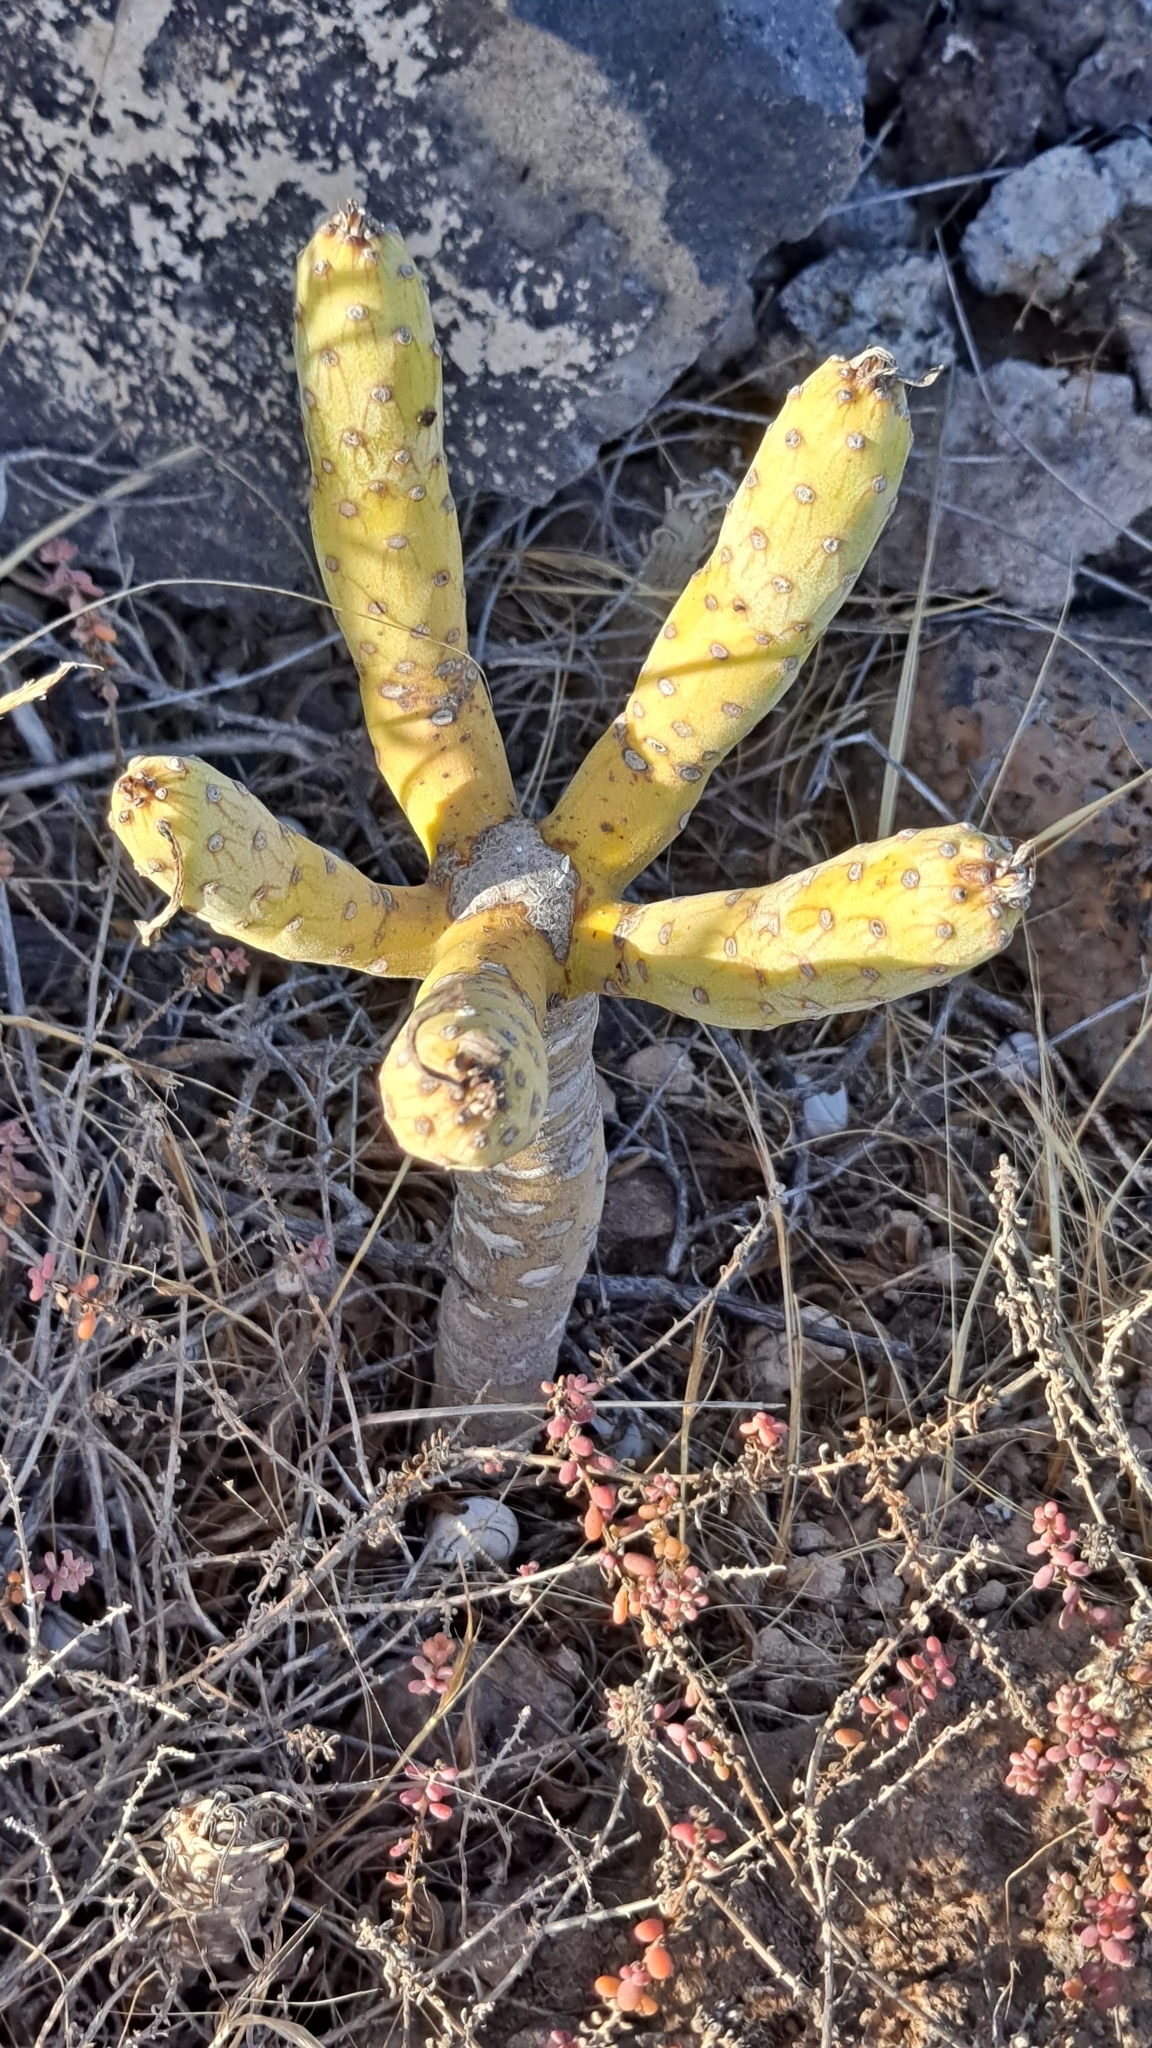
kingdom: Plantae
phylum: Tracheophyta
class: Magnoliopsida
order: Asterales
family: Asteraceae
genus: Kleinia
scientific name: Kleinia neriifolia
